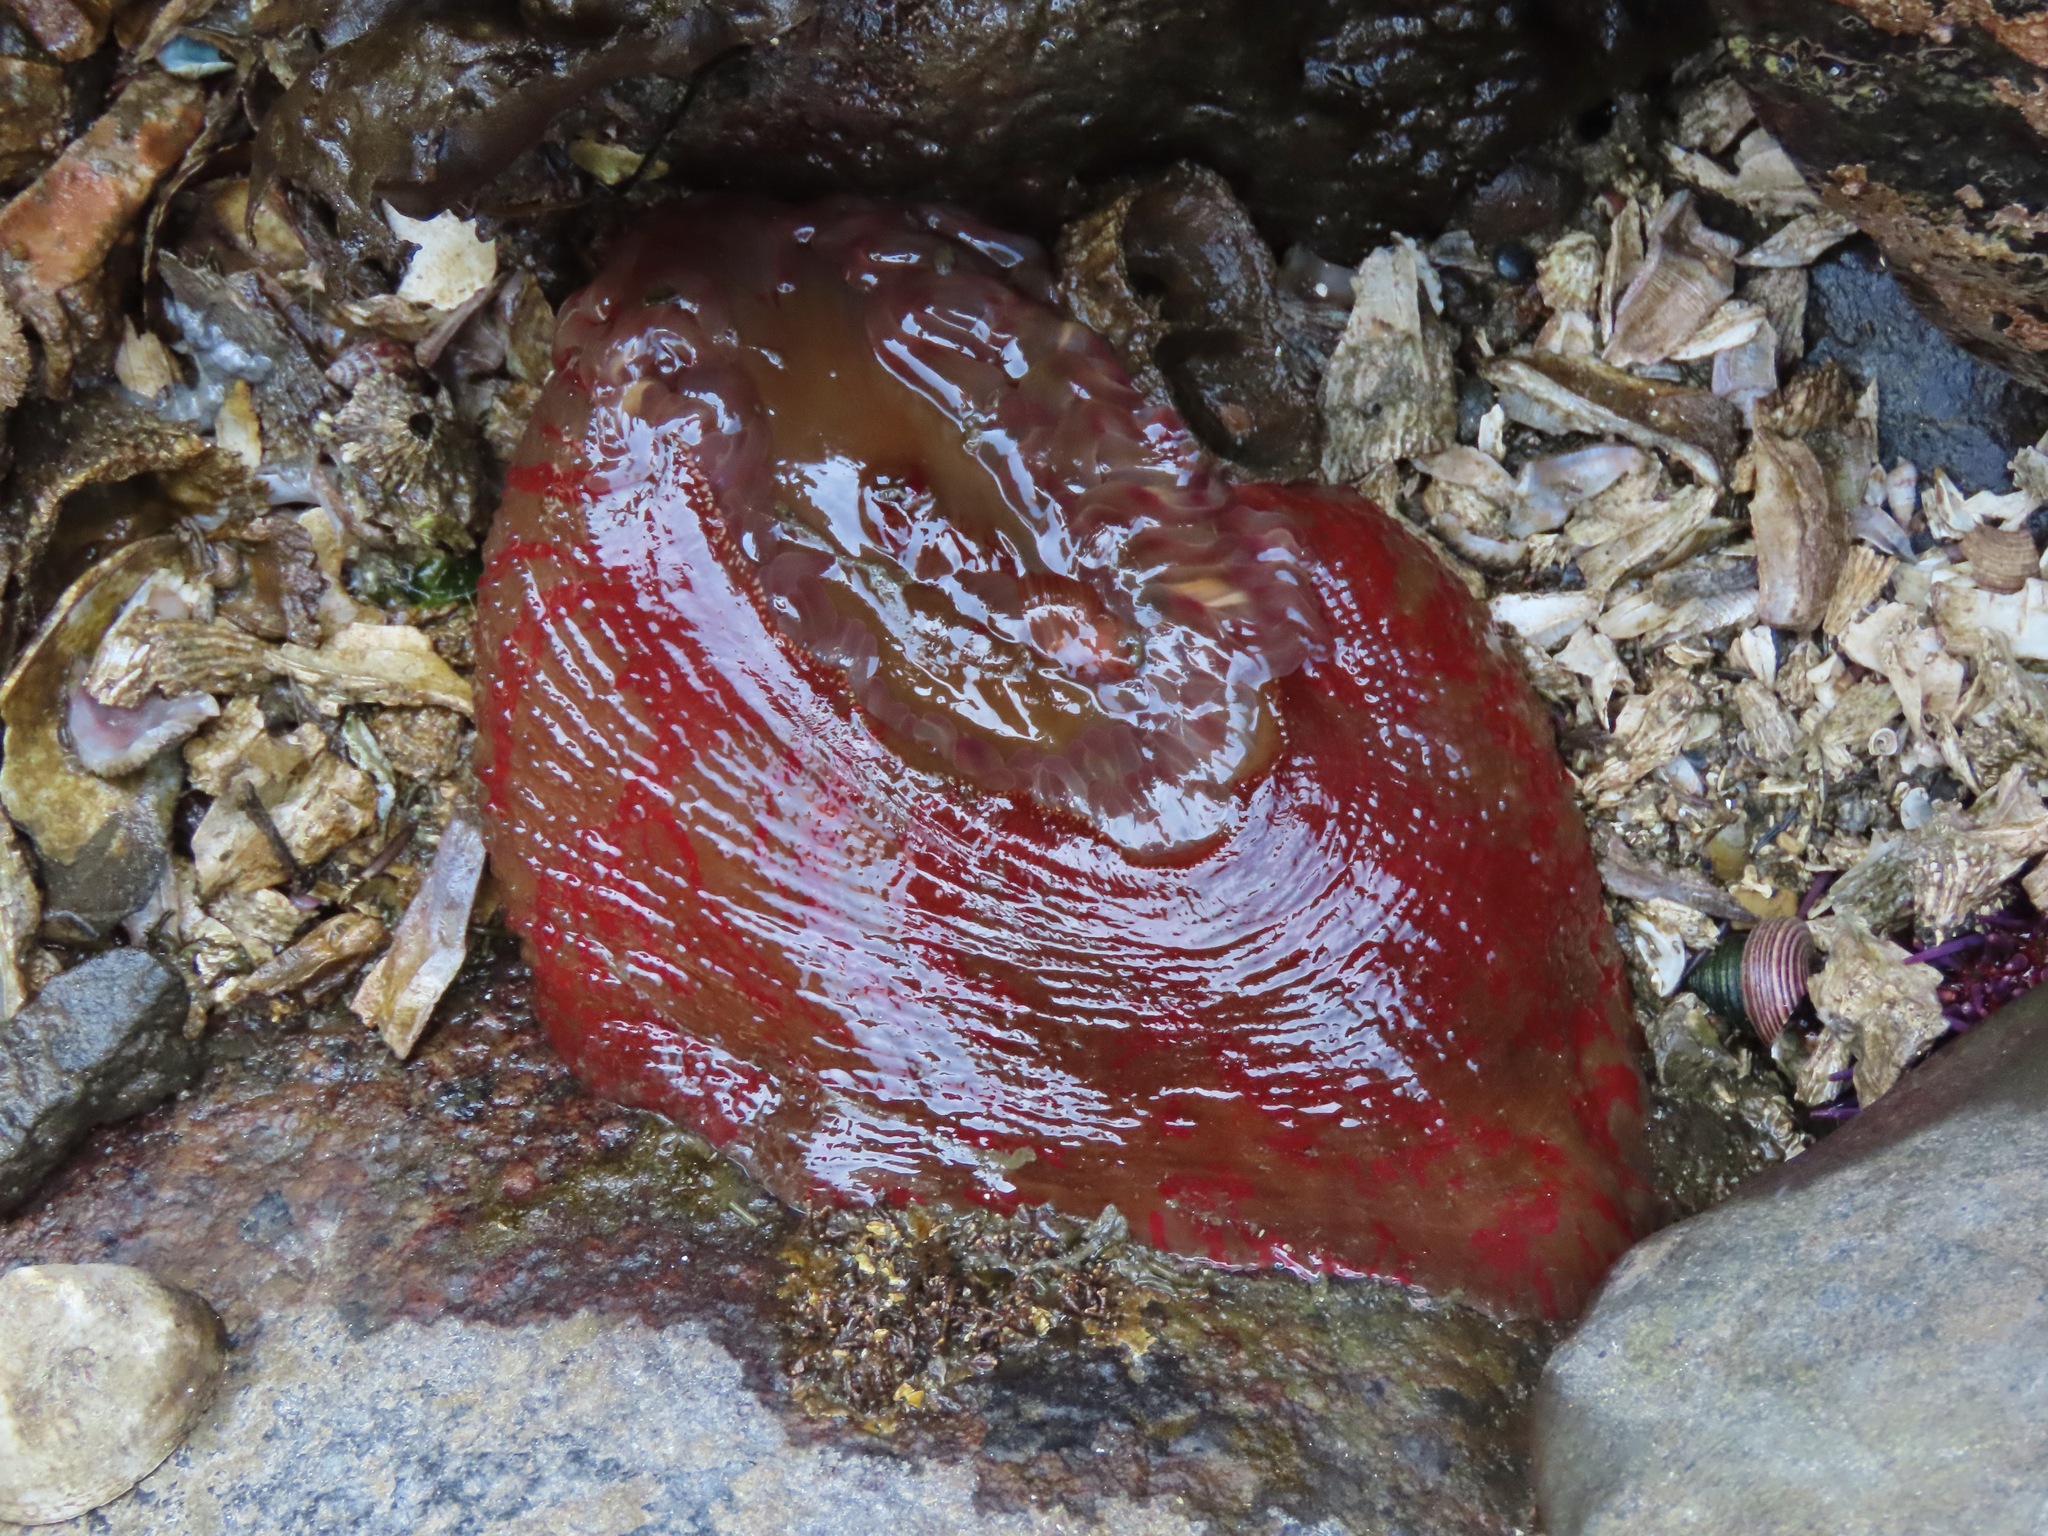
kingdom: Animalia
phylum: Cnidaria
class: Anthozoa
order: Actiniaria
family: Actiniidae
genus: Urticina
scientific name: Urticina grebelnyi
